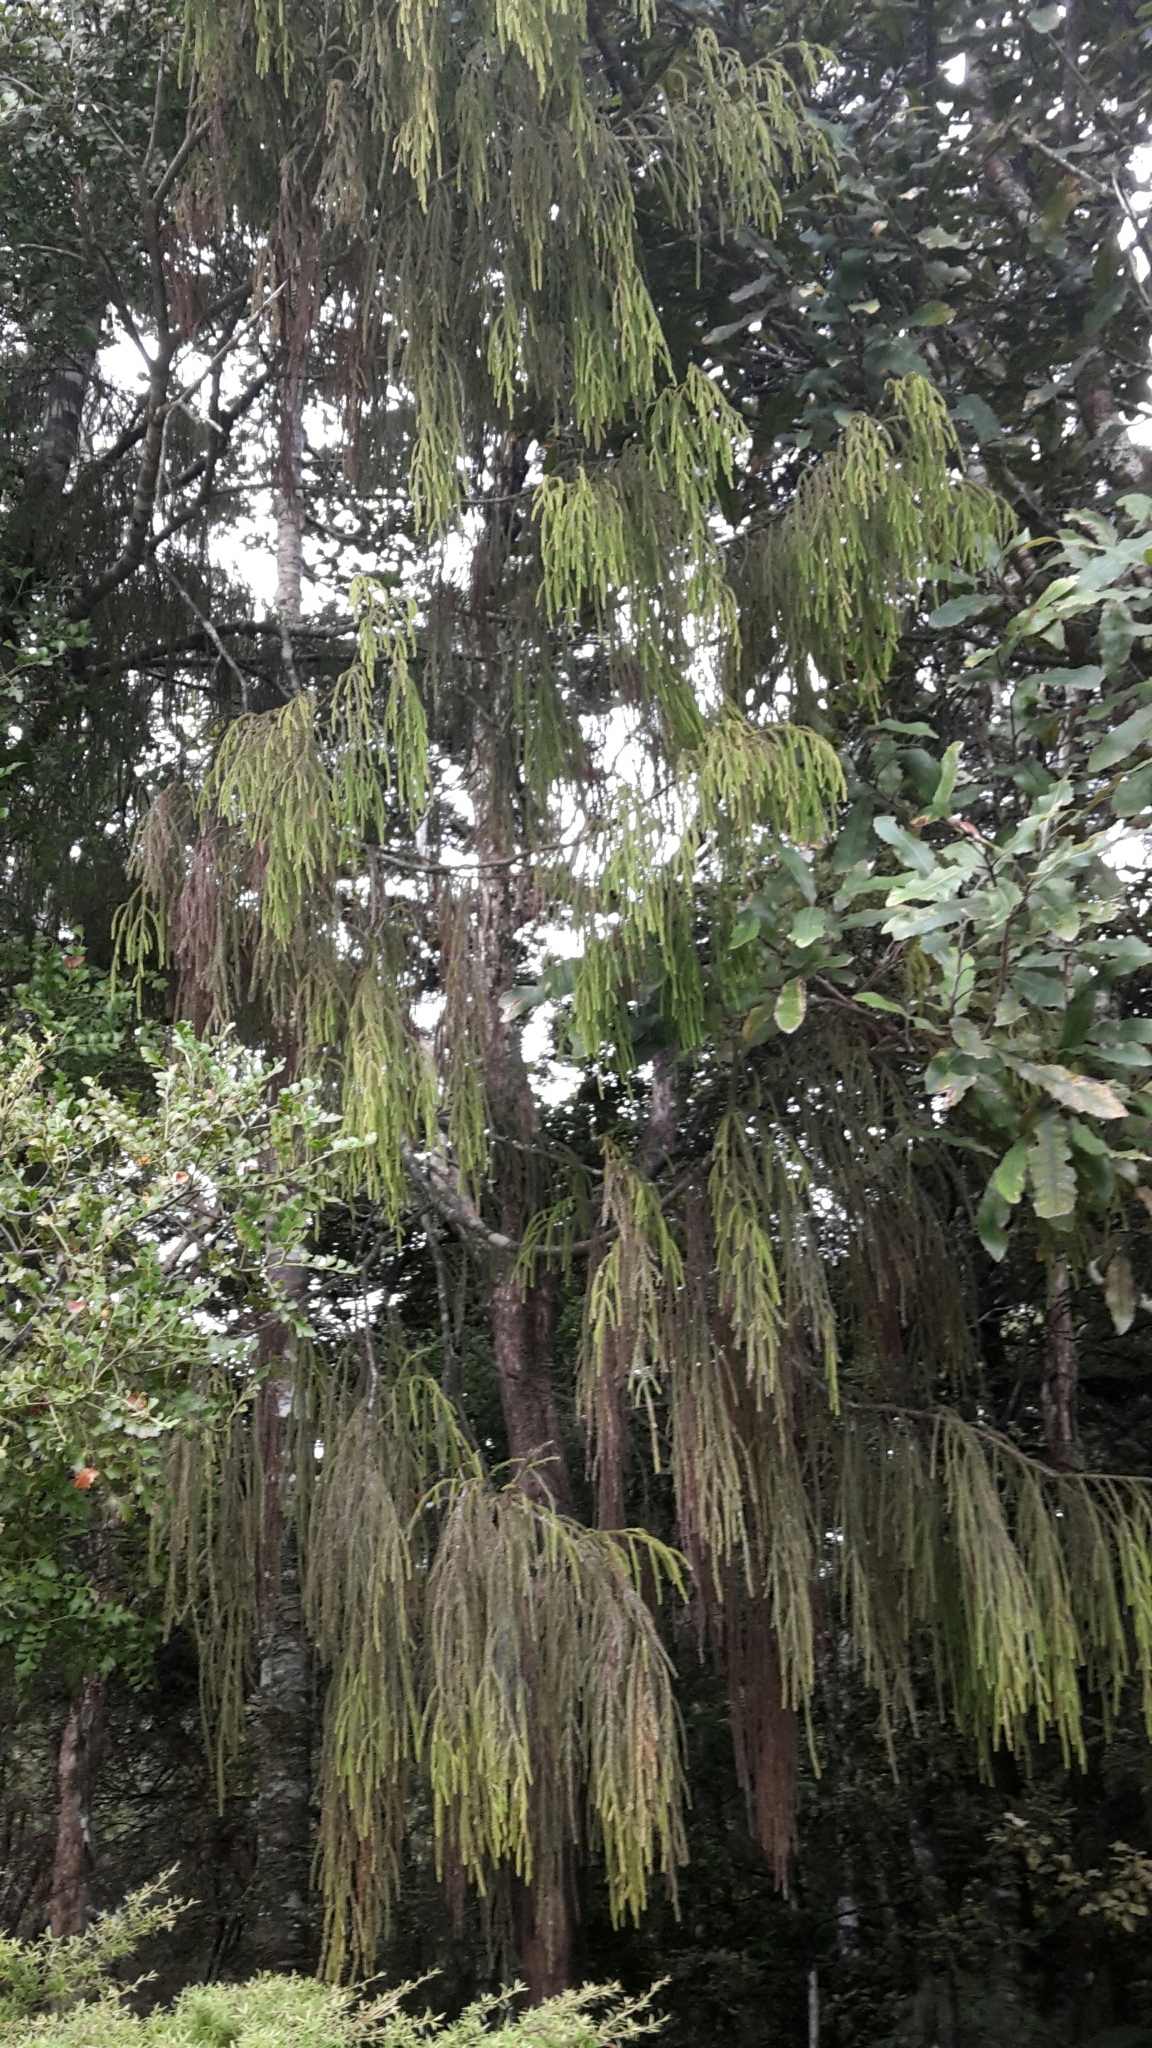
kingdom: Plantae
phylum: Tracheophyta
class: Pinopsida
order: Pinales
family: Podocarpaceae
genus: Dacrydium
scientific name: Dacrydium cupressinum
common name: Red pine
